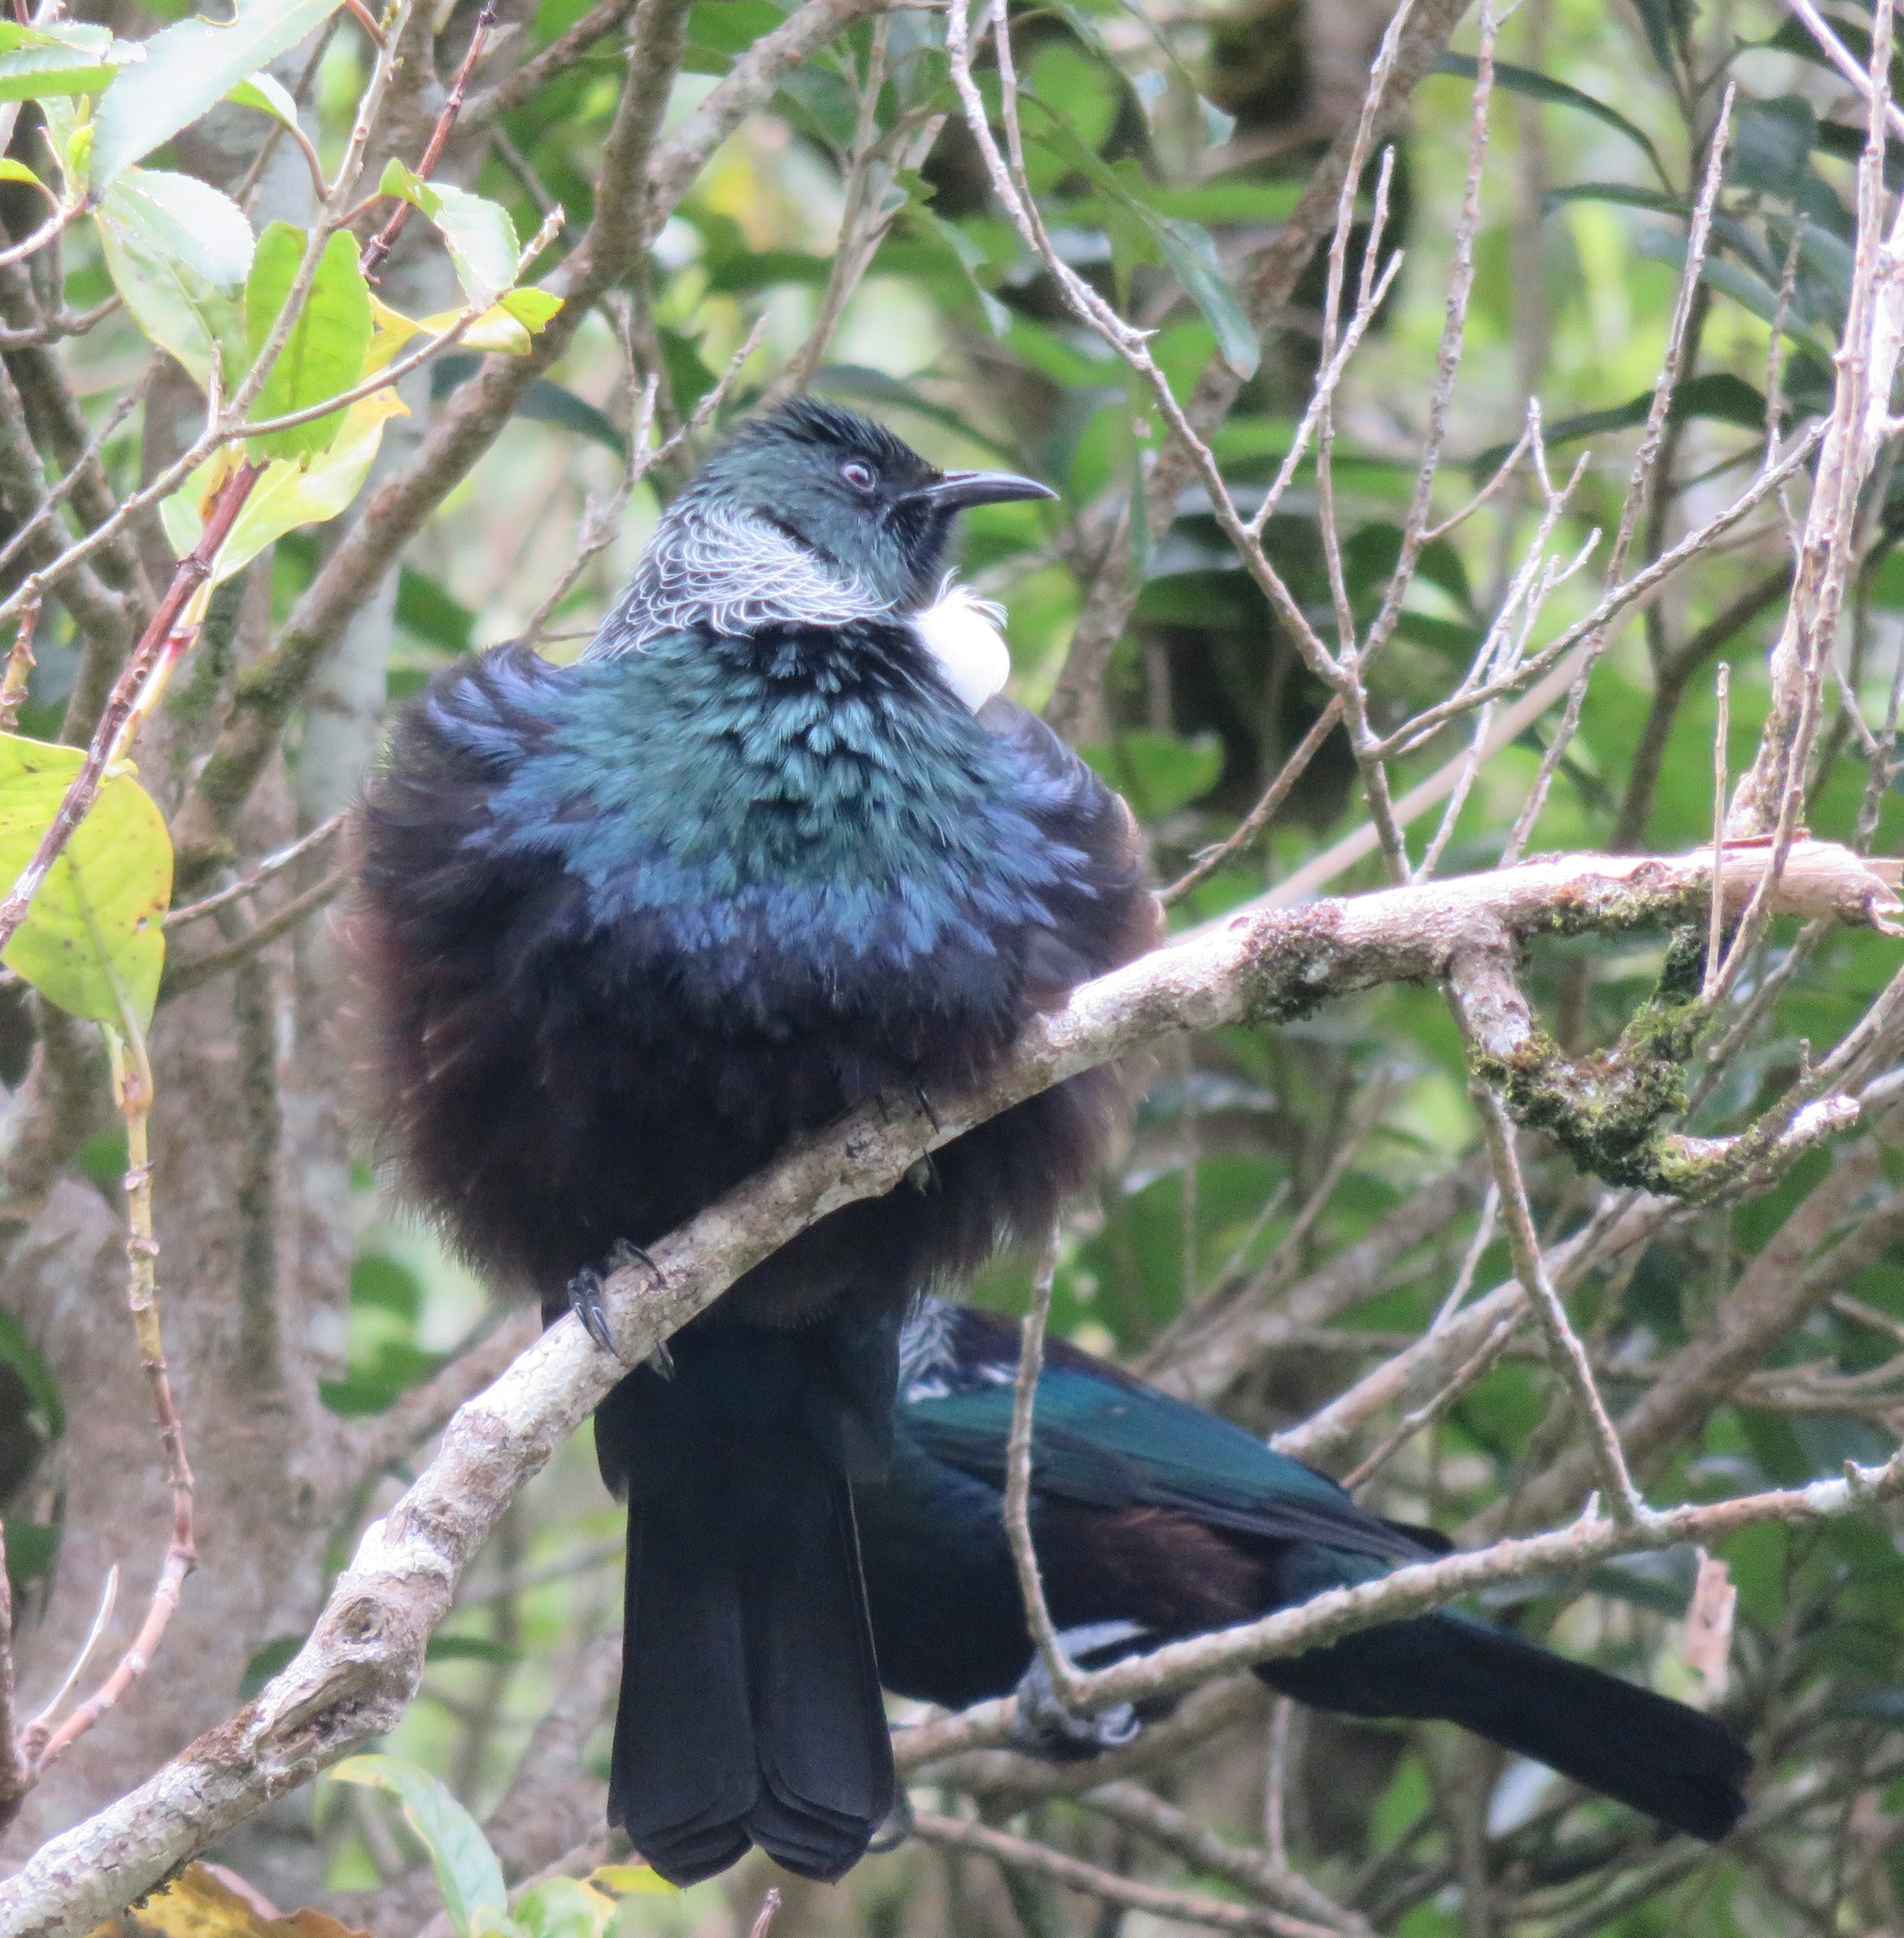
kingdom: Animalia
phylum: Chordata
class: Aves
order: Passeriformes
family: Meliphagidae
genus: Prosthemadera
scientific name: Prosthemadera novaeseelandiae
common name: Tui
